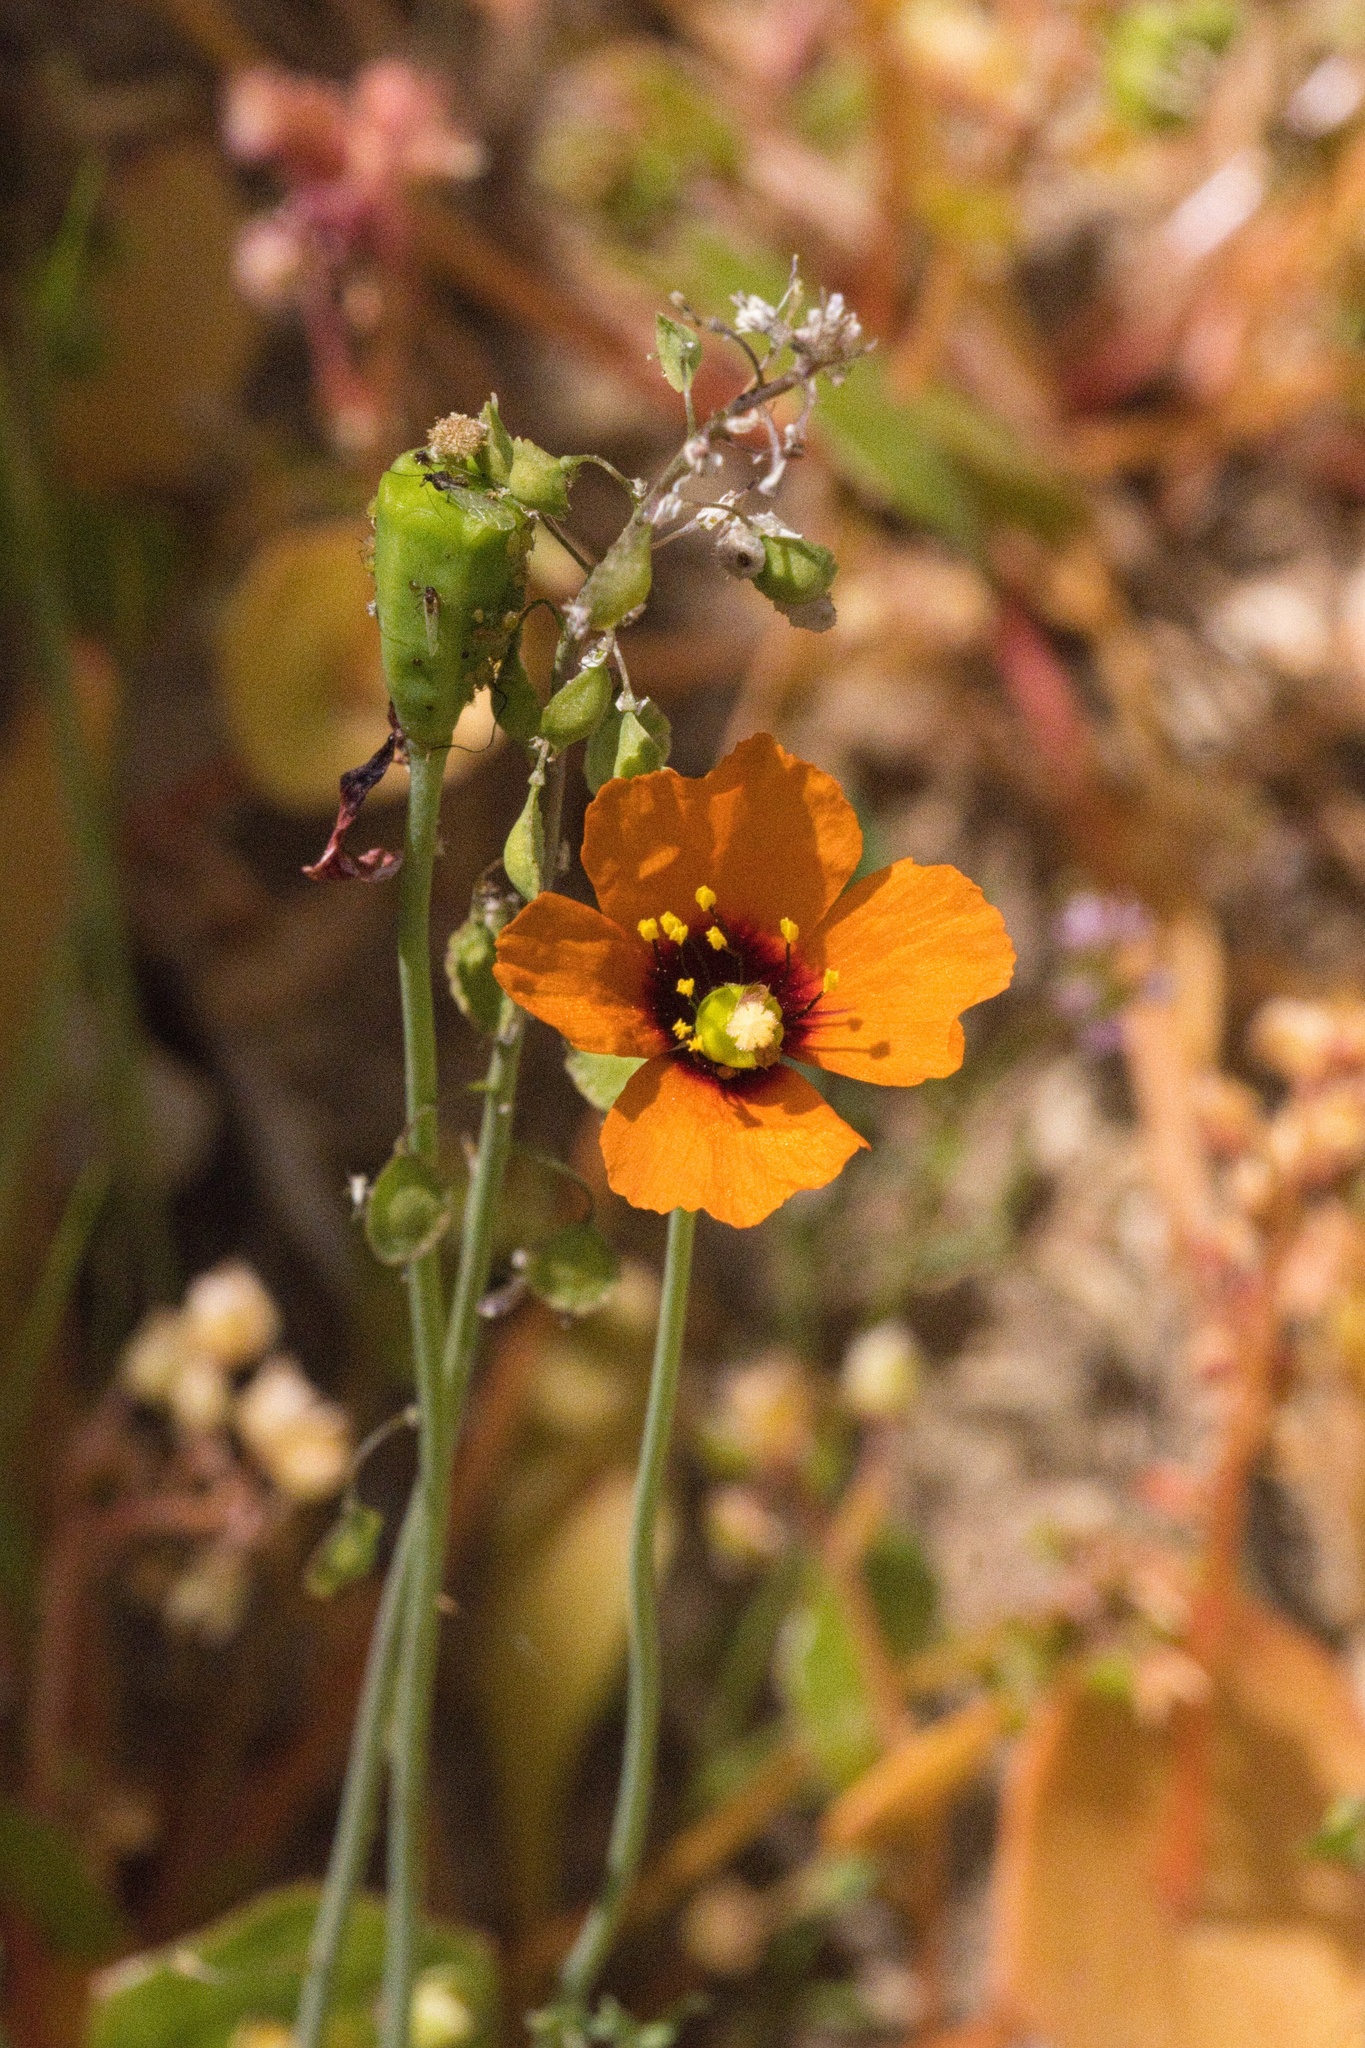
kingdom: Plantae
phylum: Tracheophyta
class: Magnoliopsida
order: Ranunculales
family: Papaveraceae
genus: Stylomecon
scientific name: Stylomecon heterophylla
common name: Flaming-poppy
